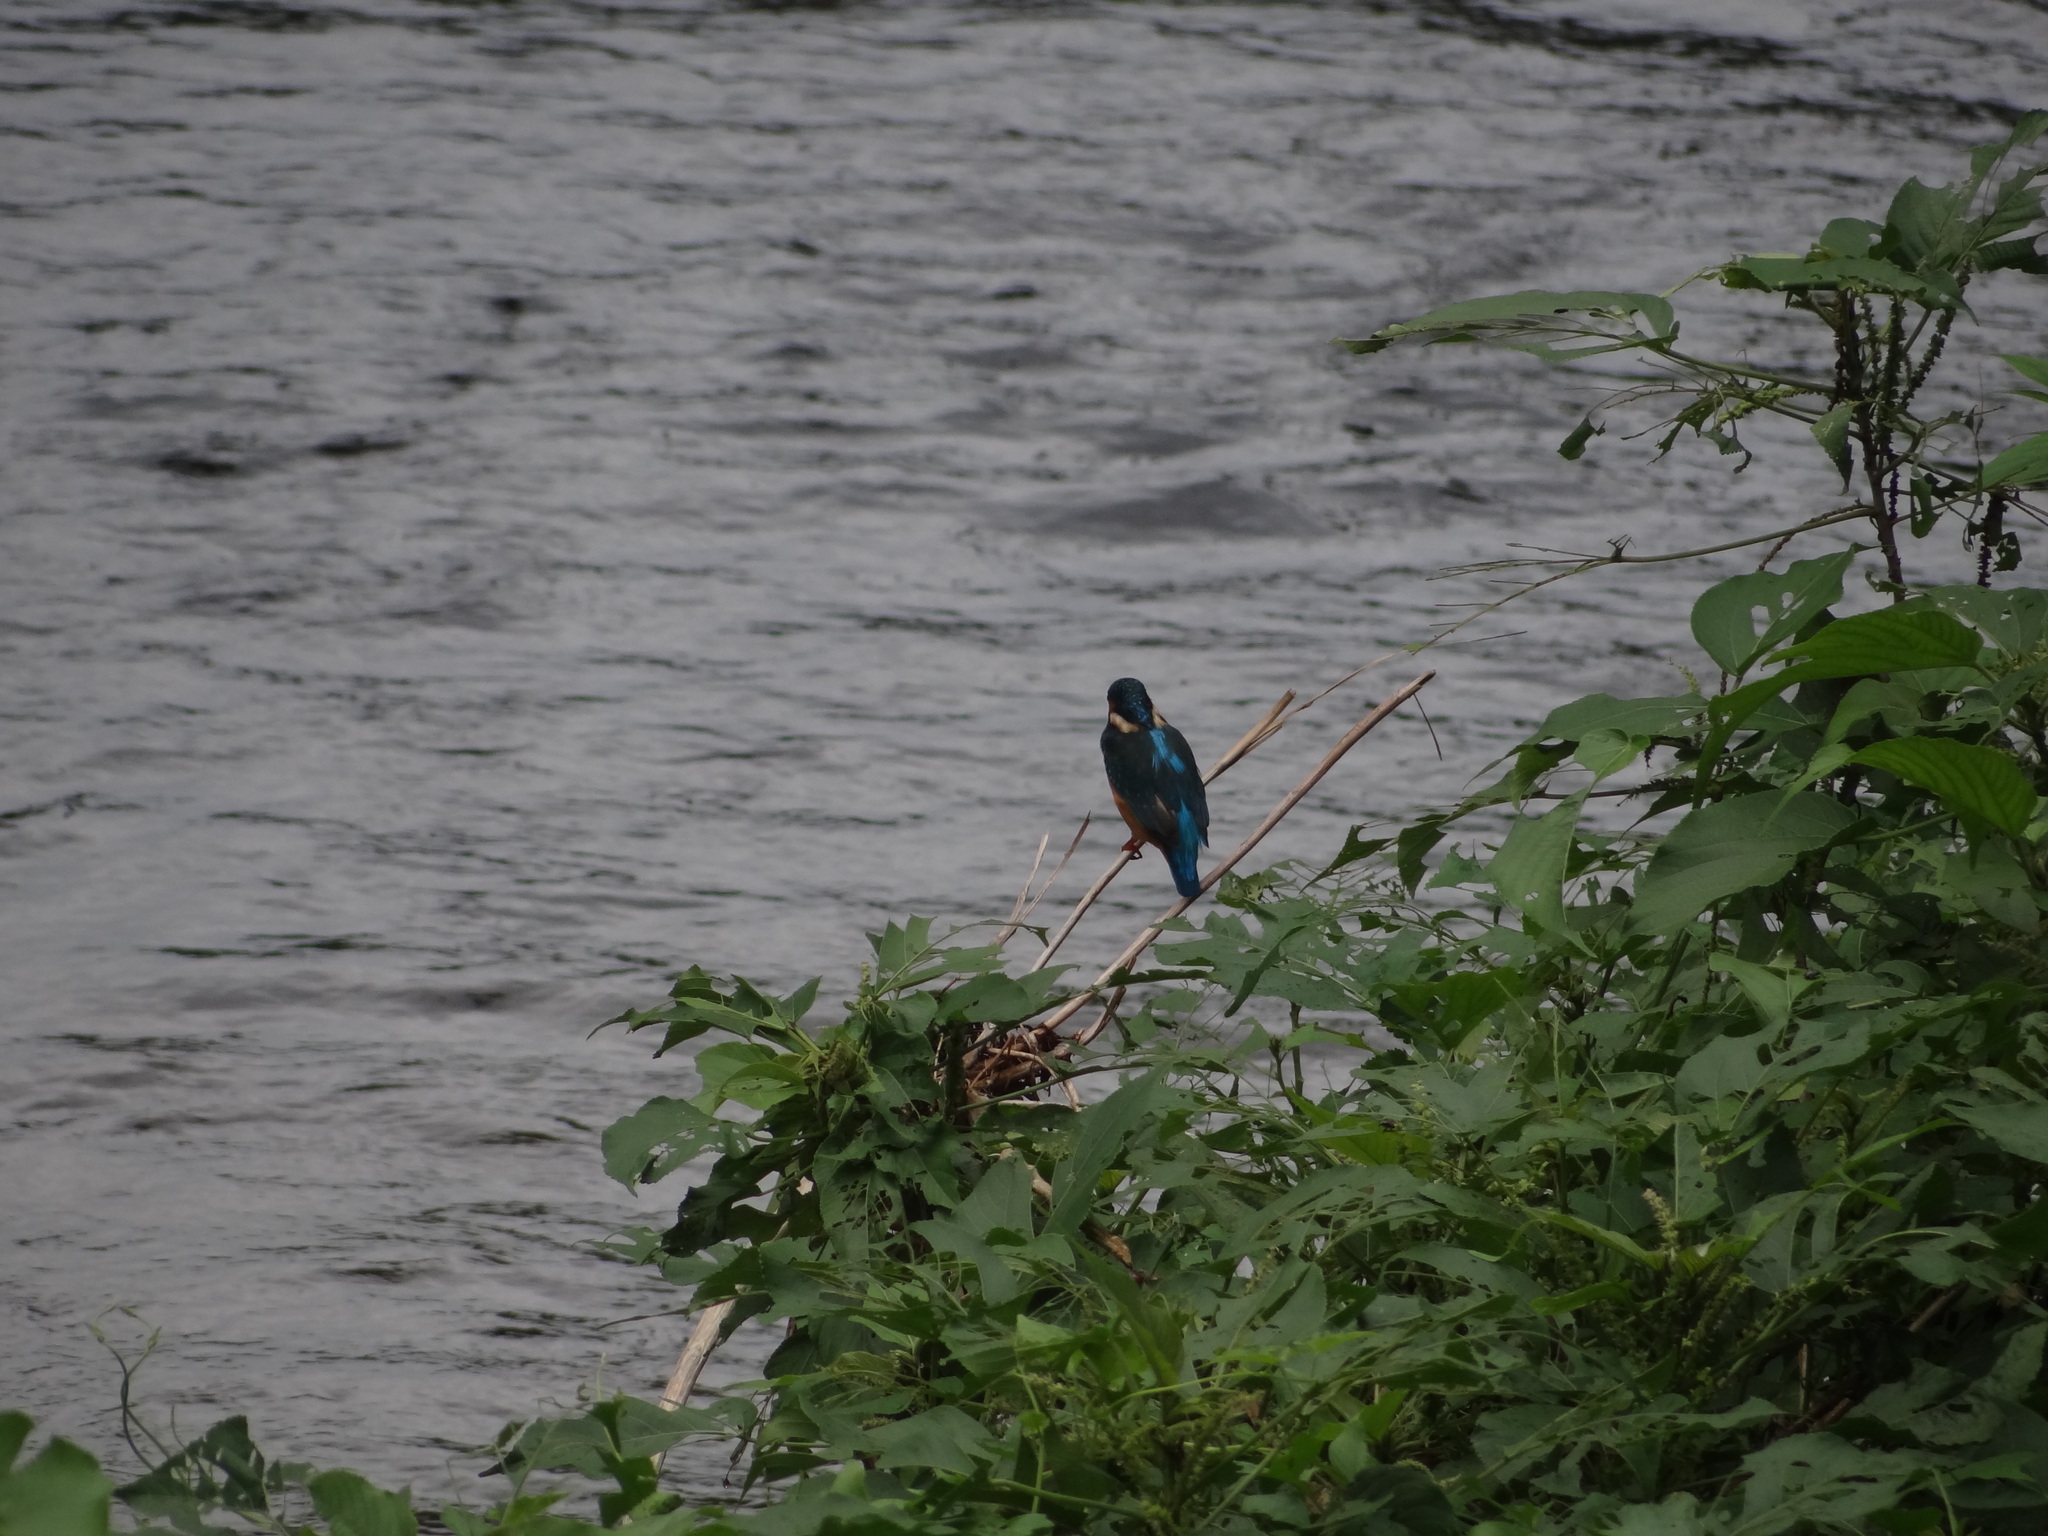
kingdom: Animalia
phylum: Chordata
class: Aves
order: Coraciiformes
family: Alcedinidae
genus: Alcedo
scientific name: Alcedo atthis
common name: Common kingfisher
